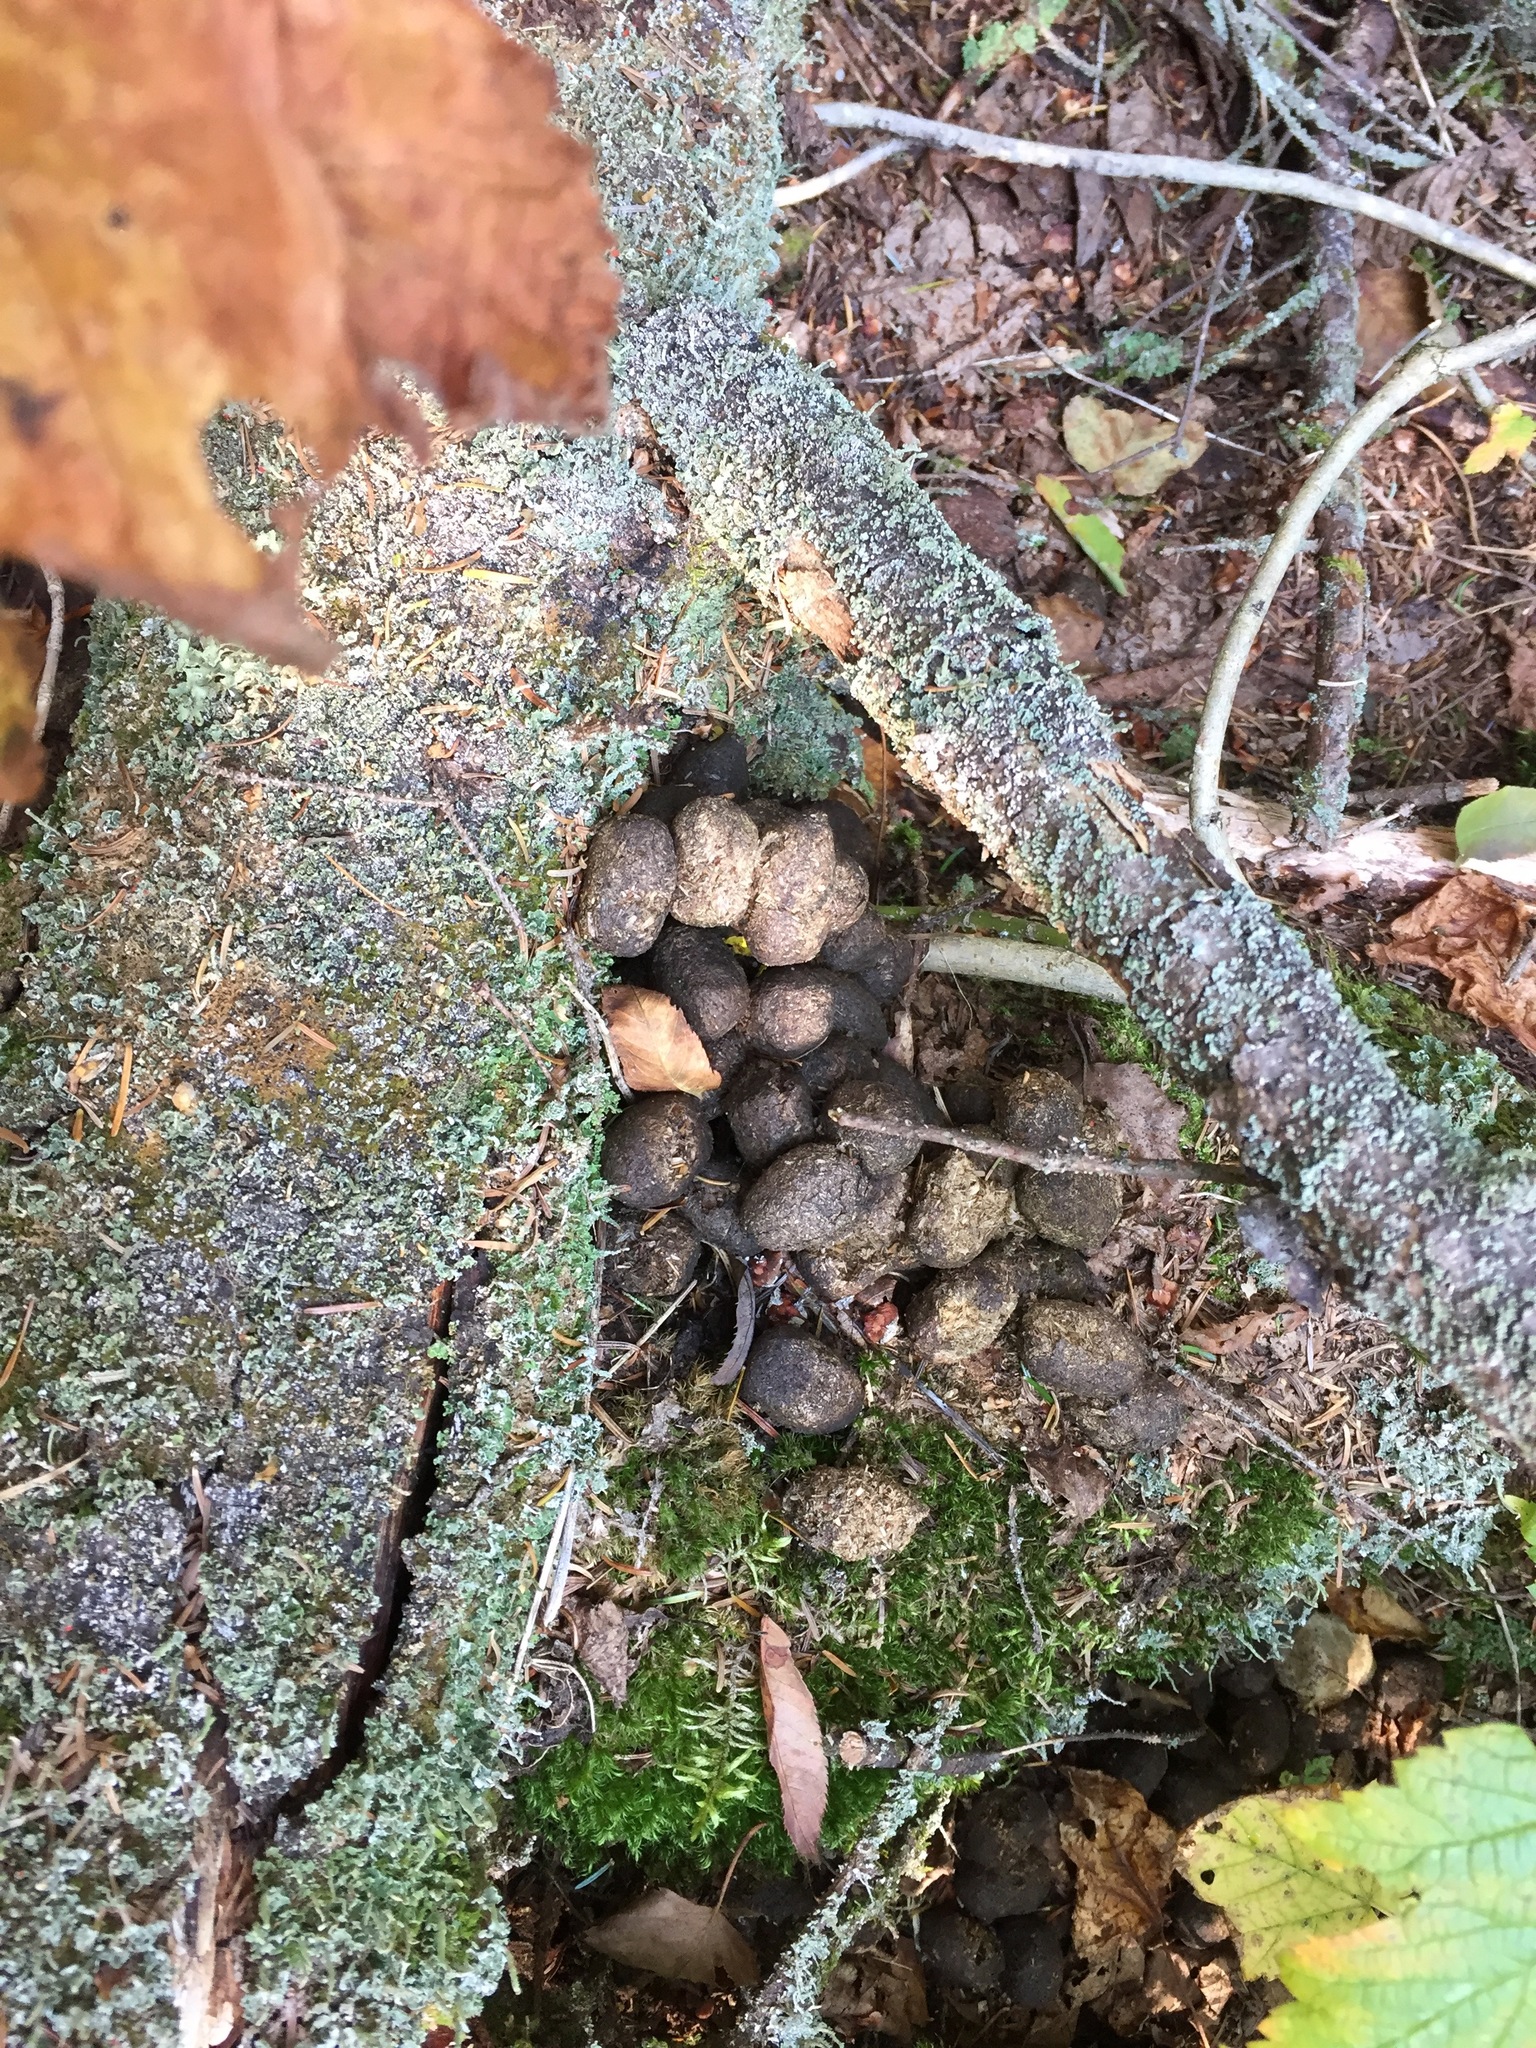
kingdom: Animalia
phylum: Chordata
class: Mammalia
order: Artiodactyla
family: Cervidae
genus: Alces
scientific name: Alces alces
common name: Moose
